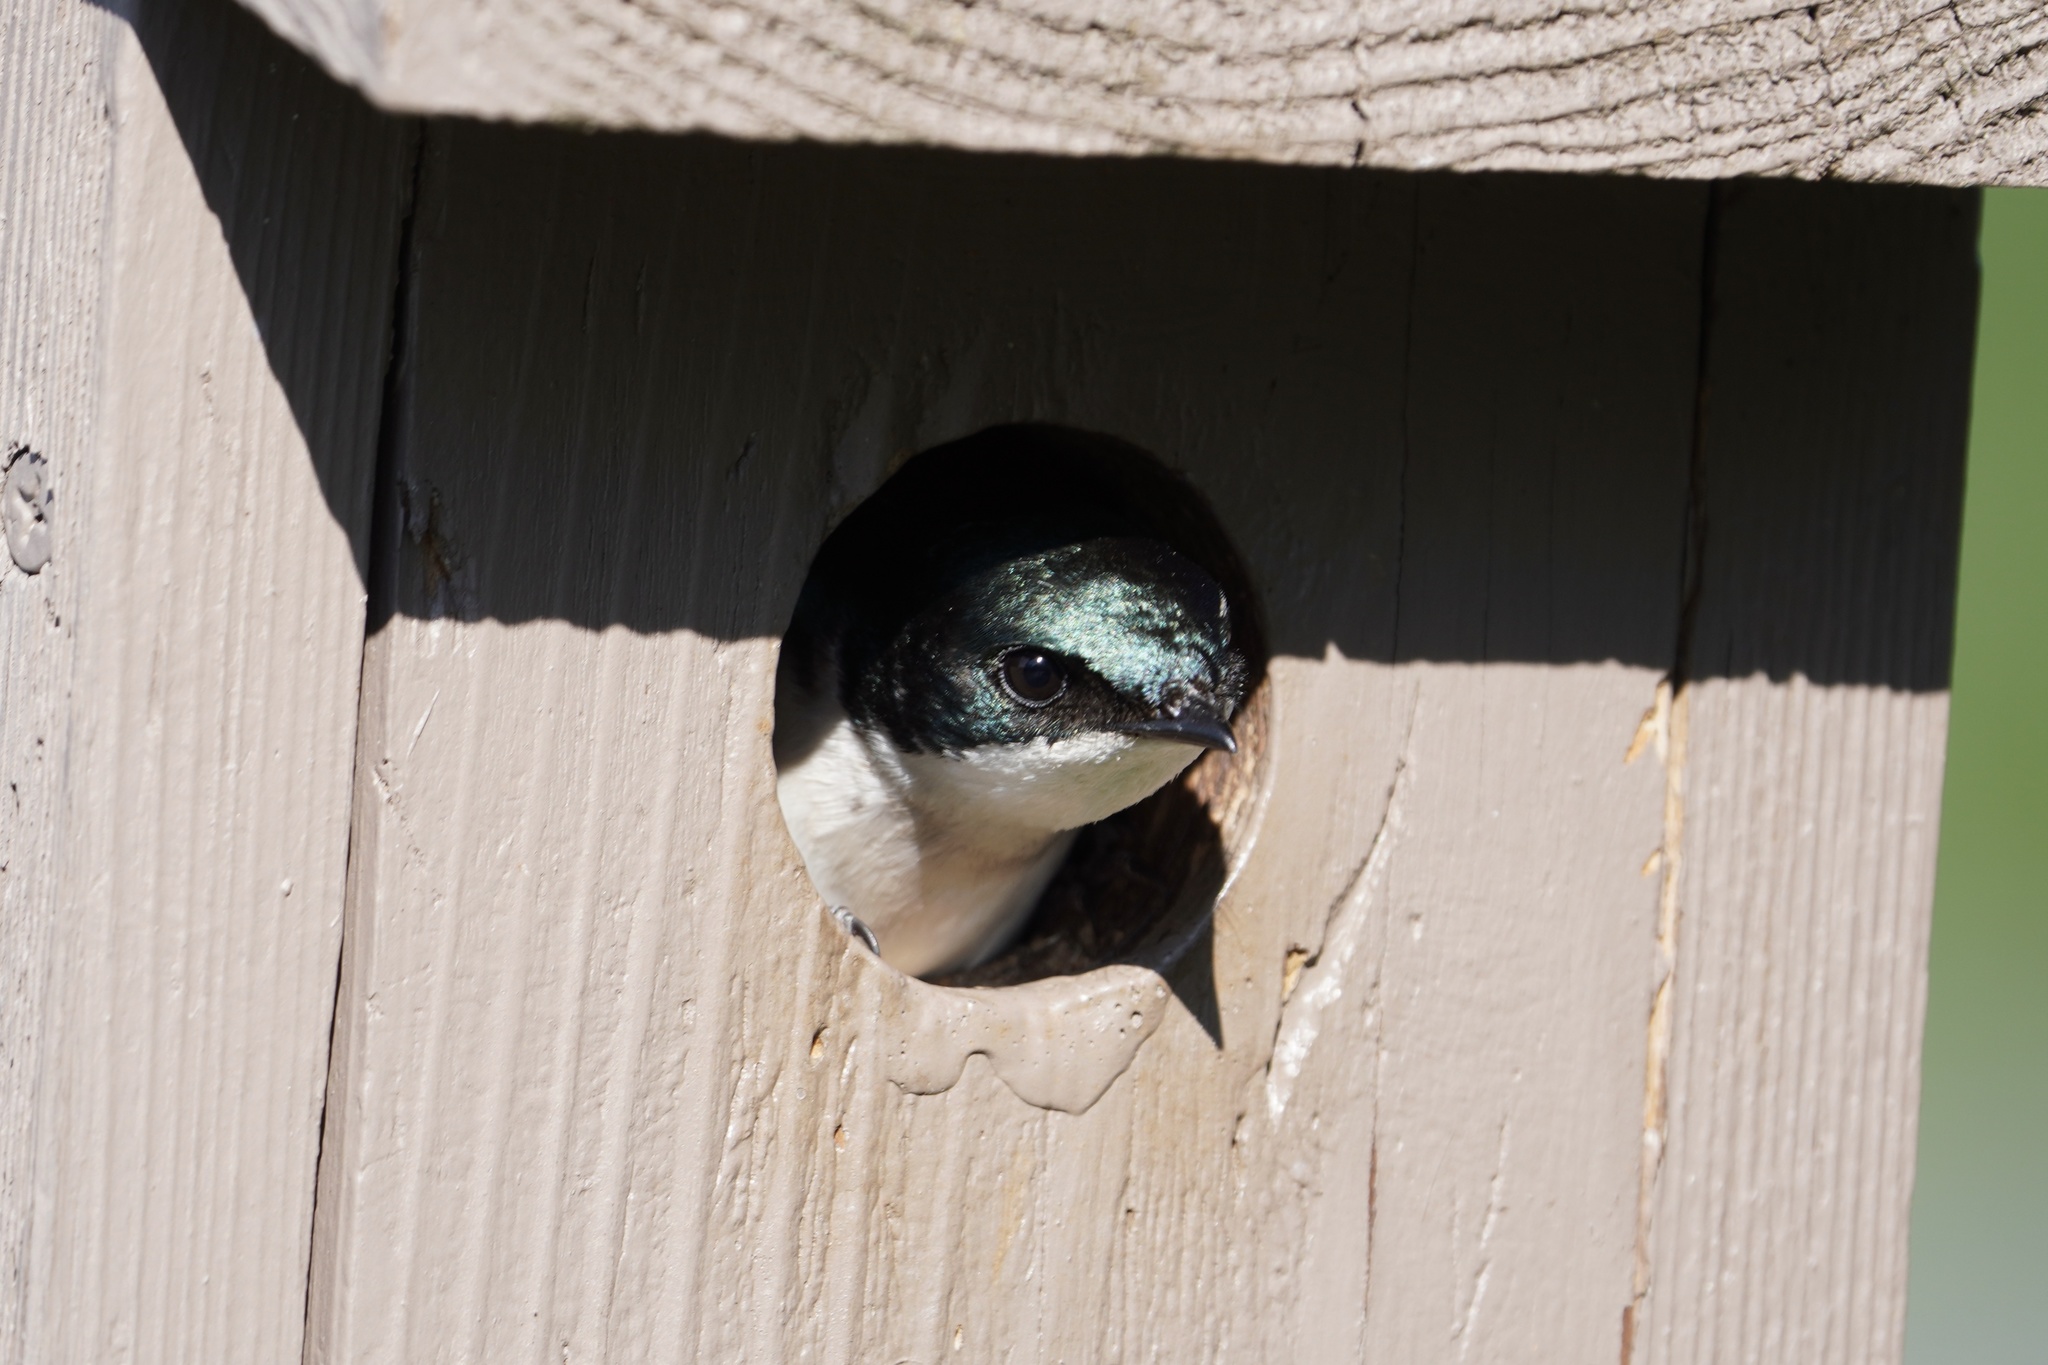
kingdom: Animalia
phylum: Chordata
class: Aves
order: Passeriformes
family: Hirundinidae
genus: Tachycineta
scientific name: Tachycineta bicolor
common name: Tree swallow
